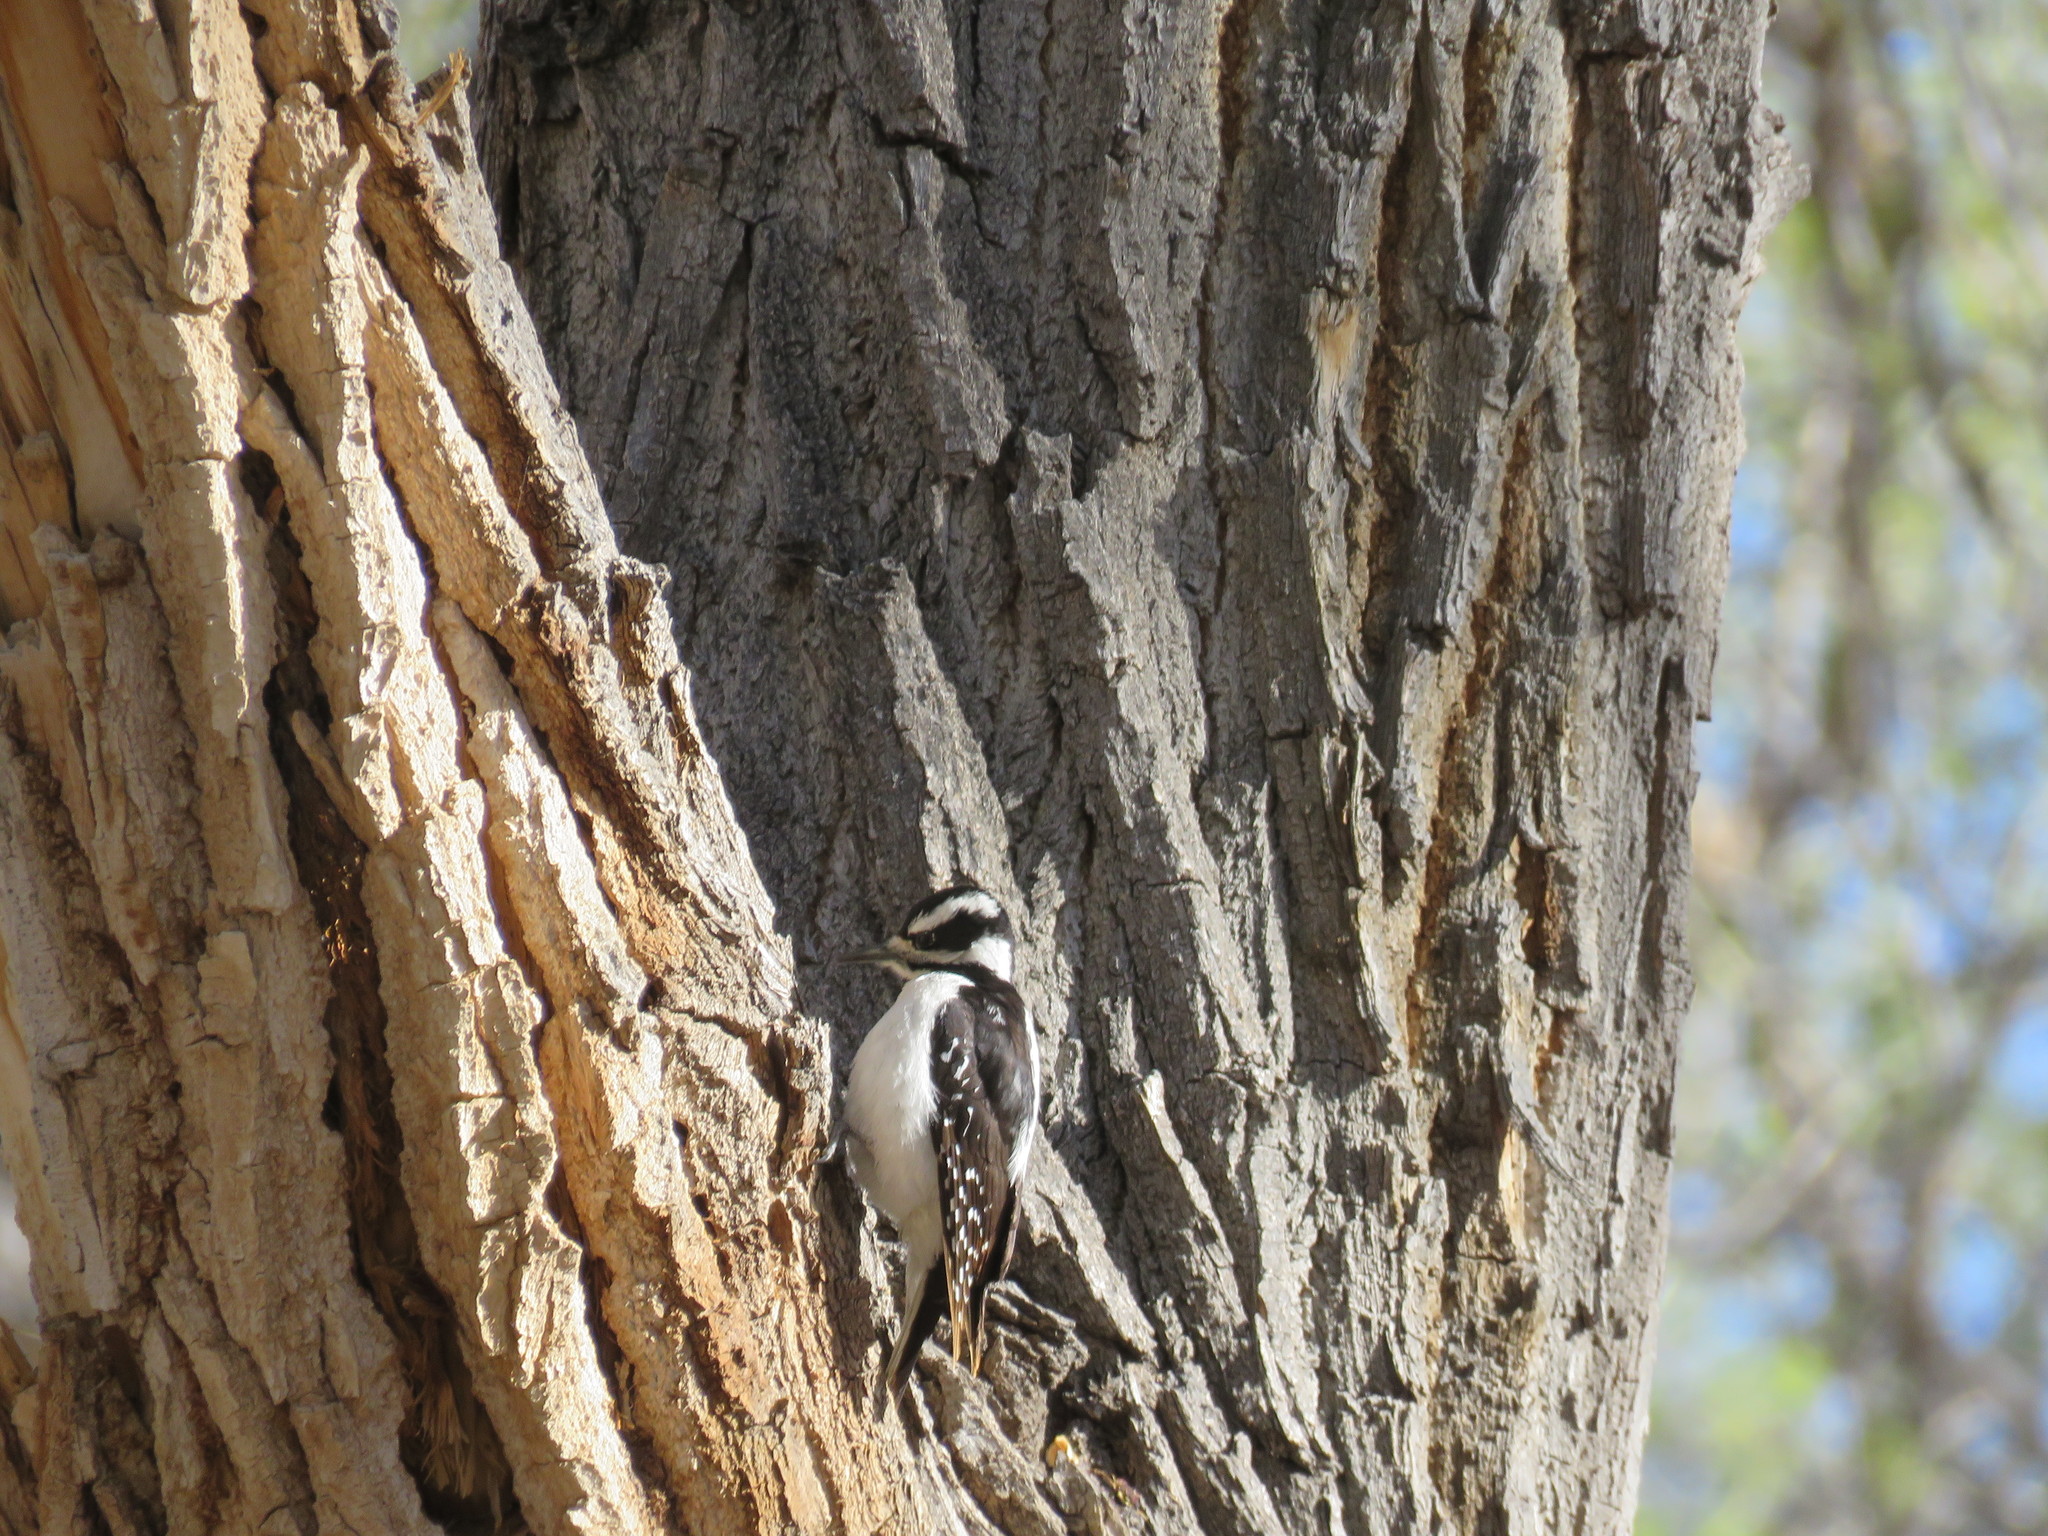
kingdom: Animalia
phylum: Chordata
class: Aves
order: Piciformes
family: Picidae
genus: Leuconotopicus
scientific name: Leuconotopicus villosus
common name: Hairy woodpecker
